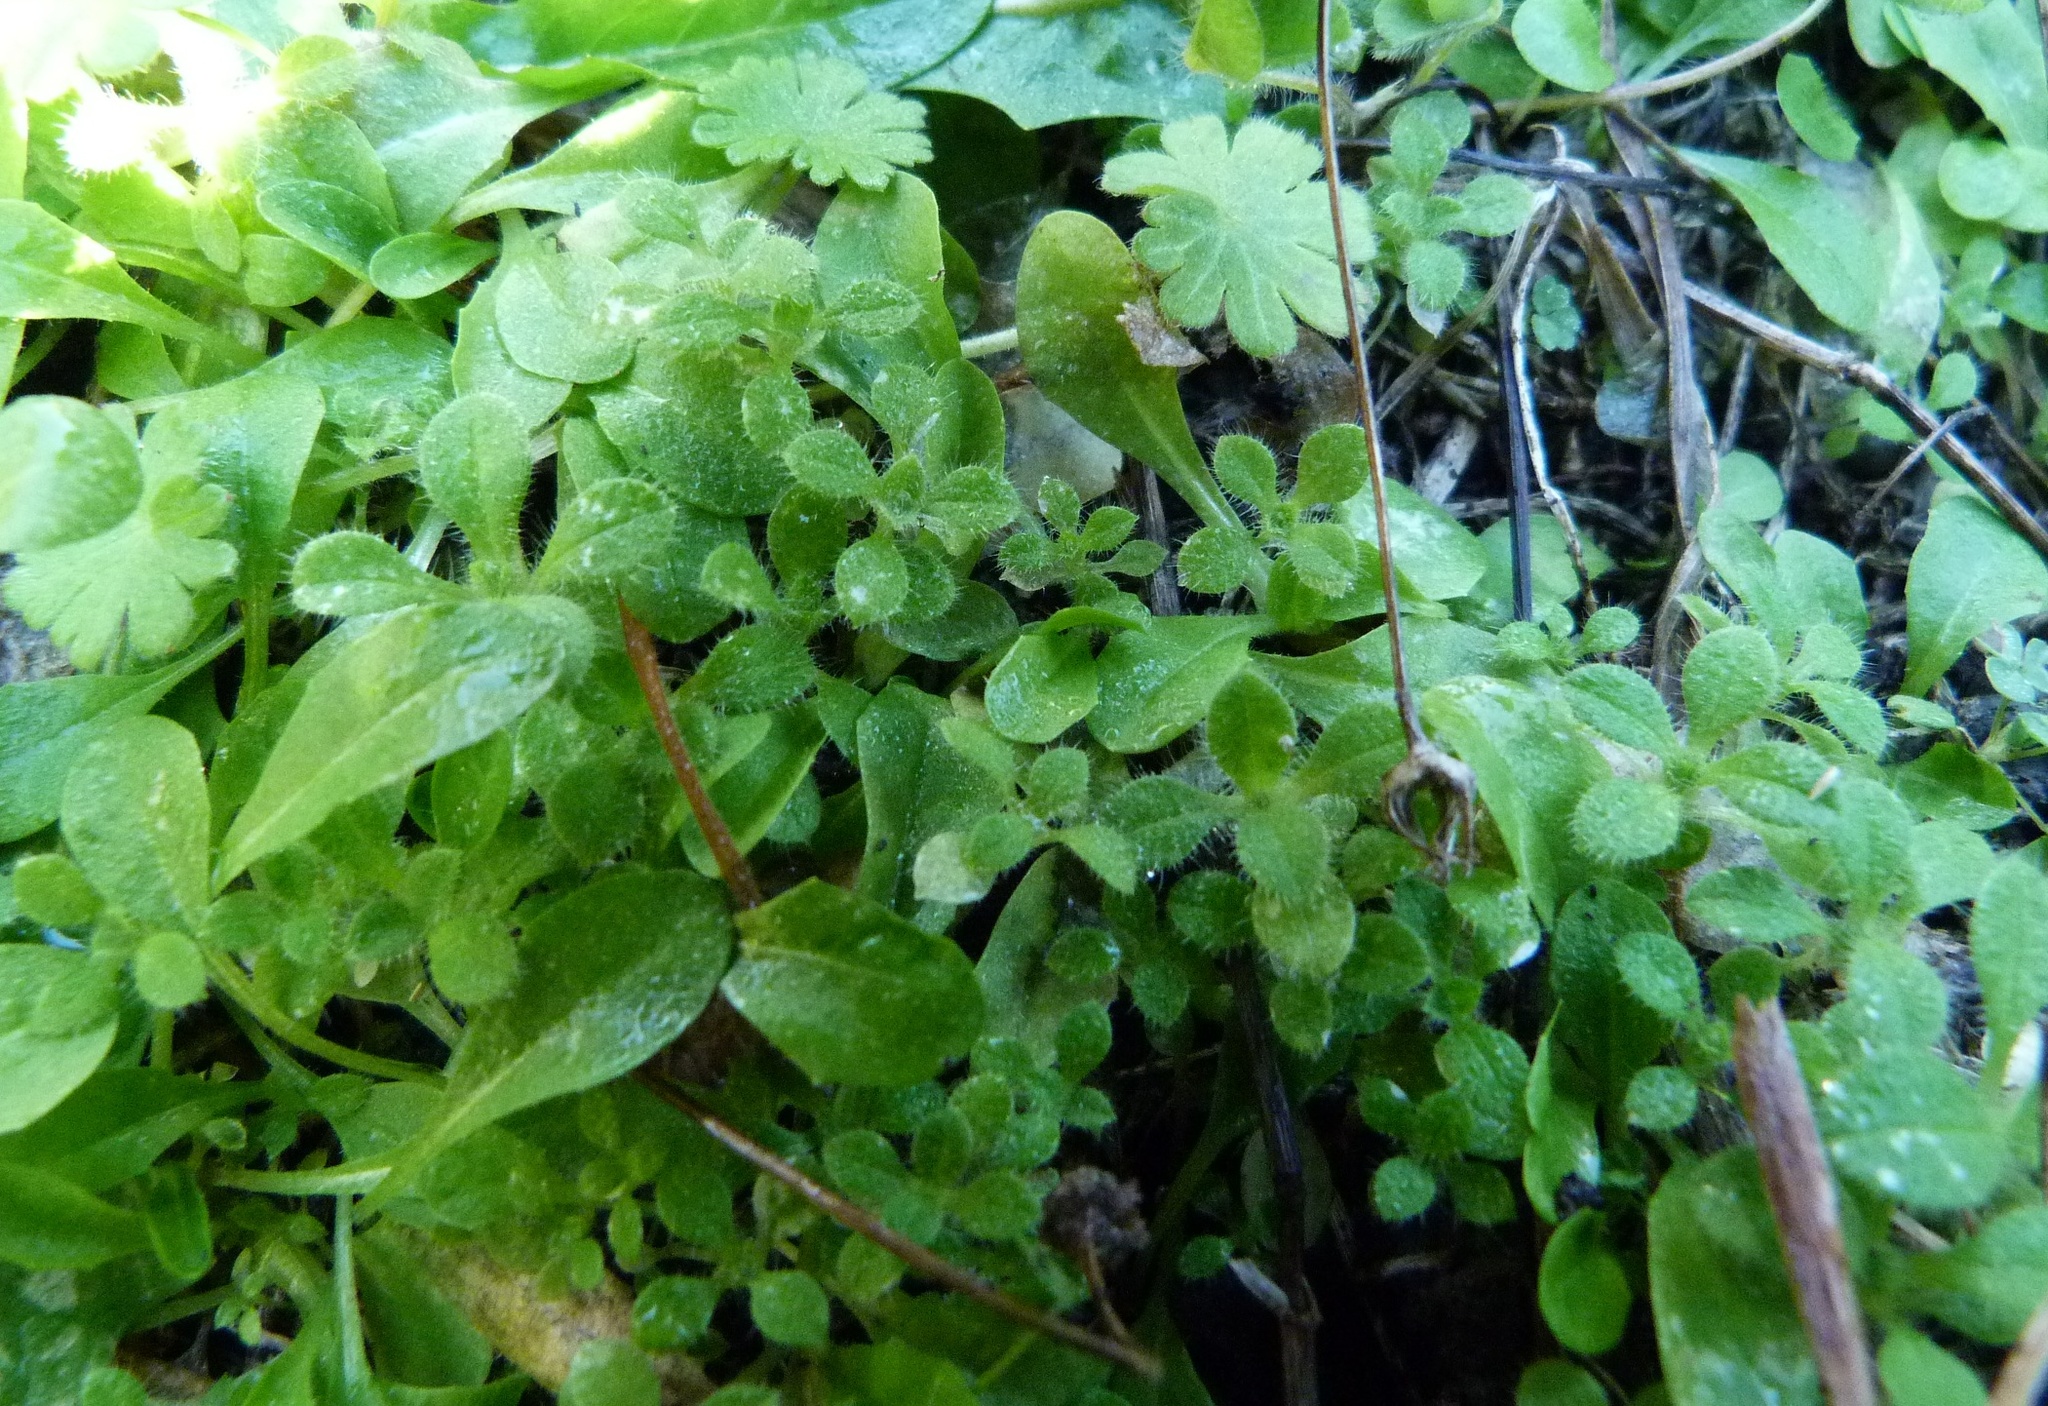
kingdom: Plantae
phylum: Tracheophyta
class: Magnoliopsida
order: Gentianales
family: Rubiaceae
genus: Galium
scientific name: Galium aparine
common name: Cleavers
